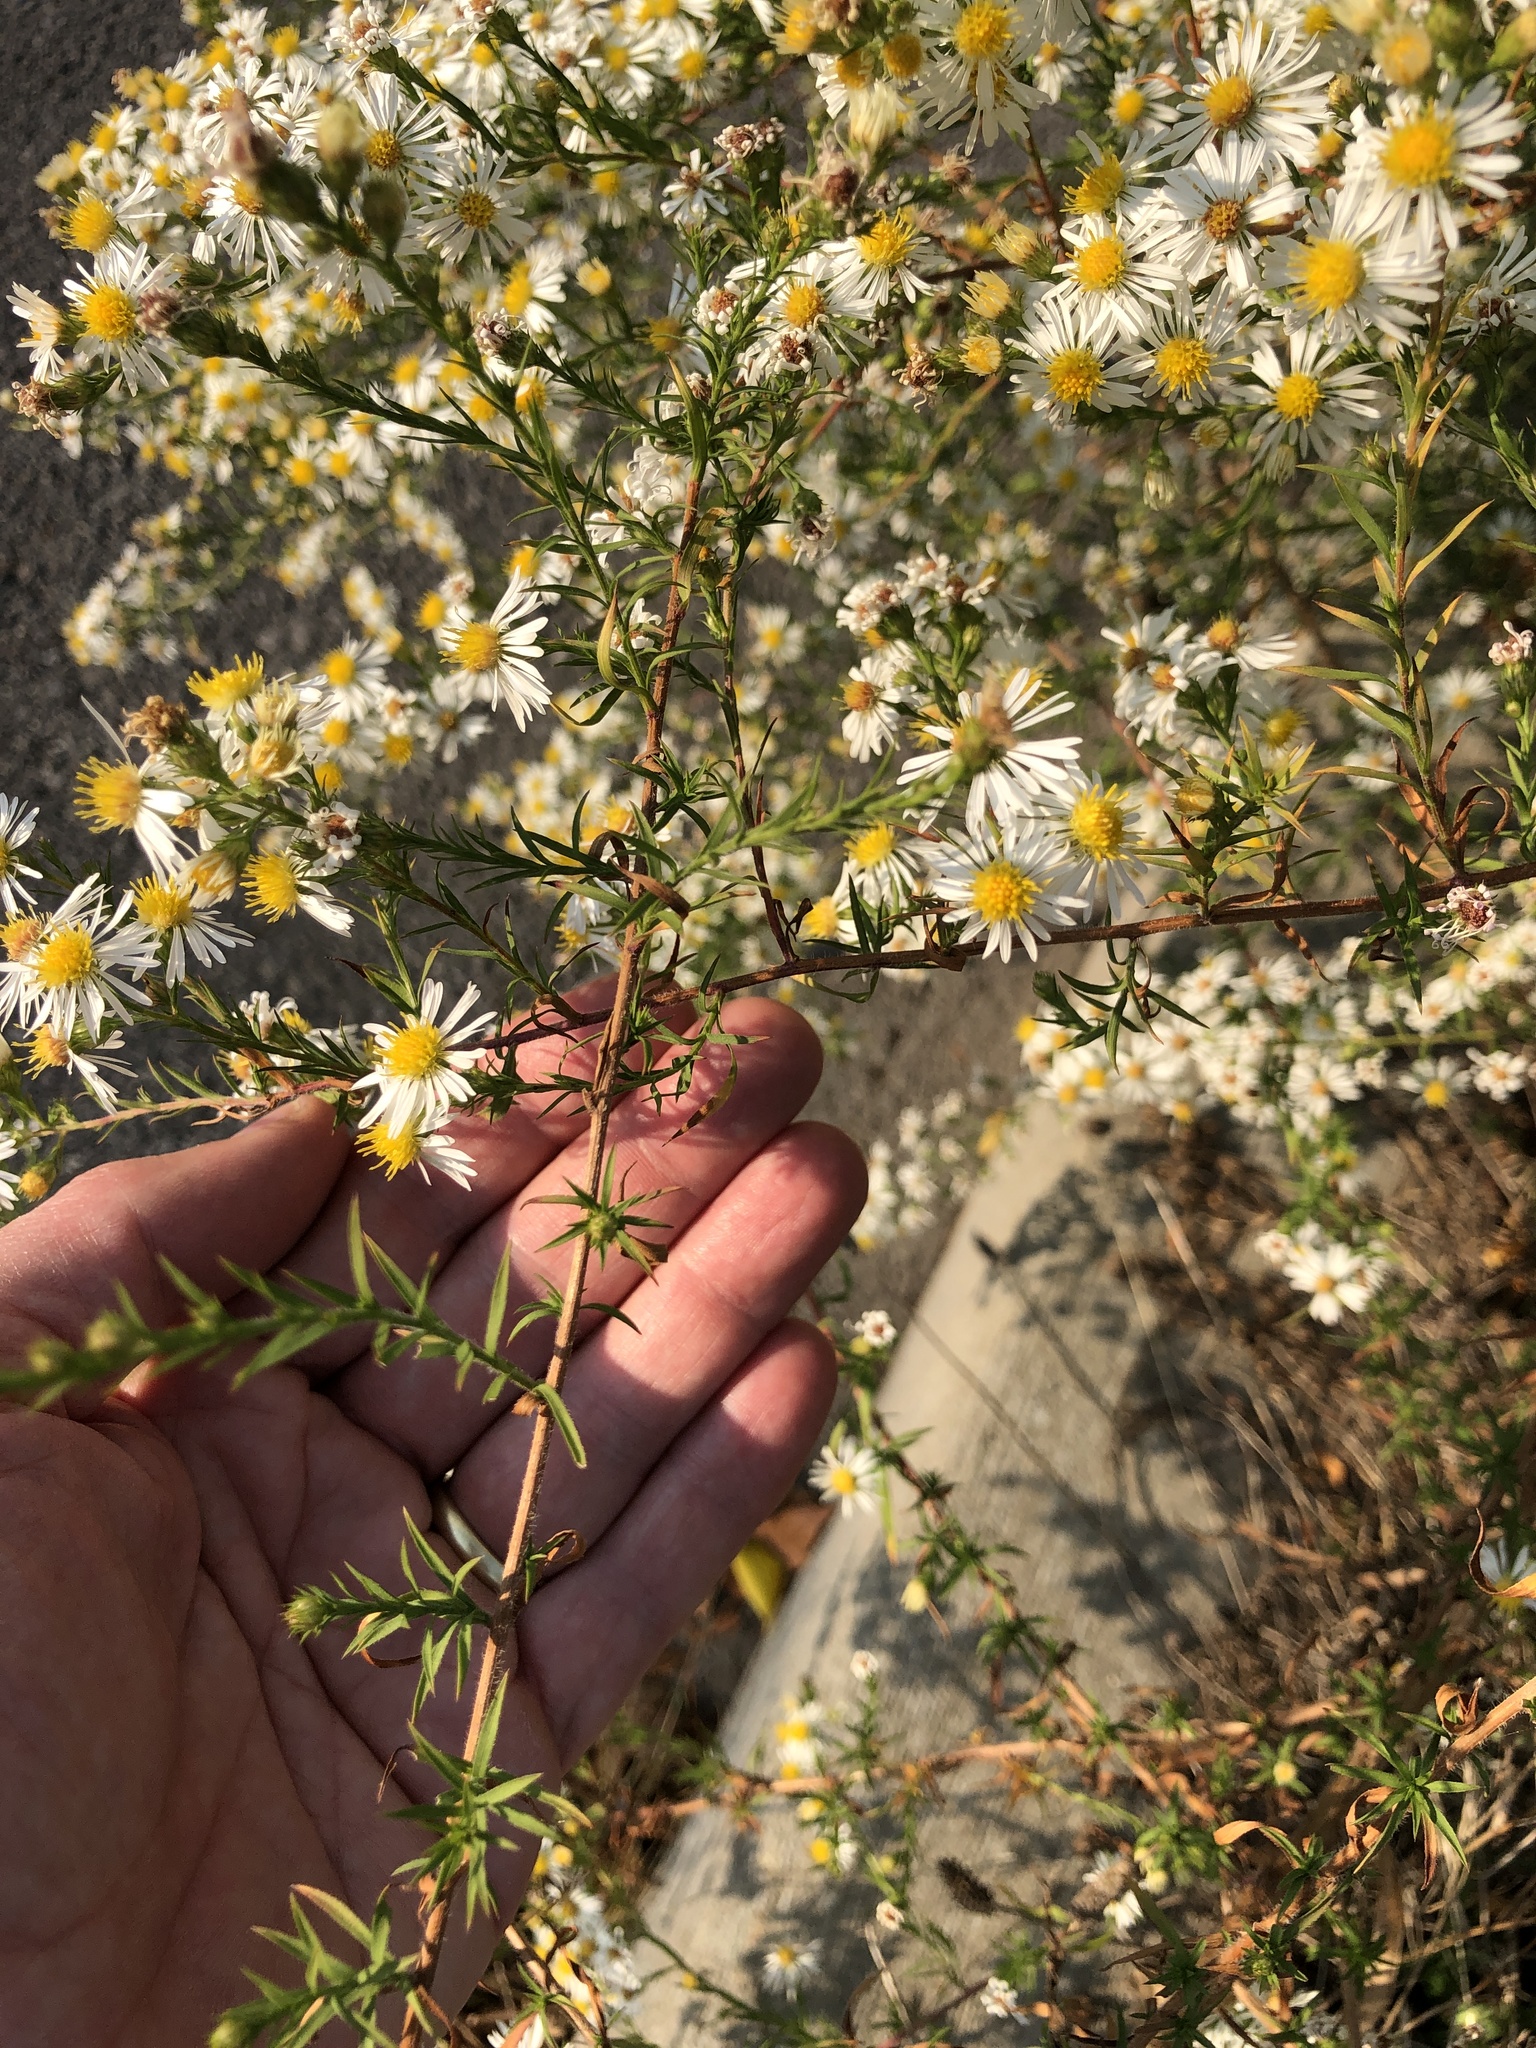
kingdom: Animalia
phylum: Arthropoda
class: Insecta
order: Lepidoptera
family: Pieridae
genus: Pieris
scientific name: Pieris rapae
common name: Small white
